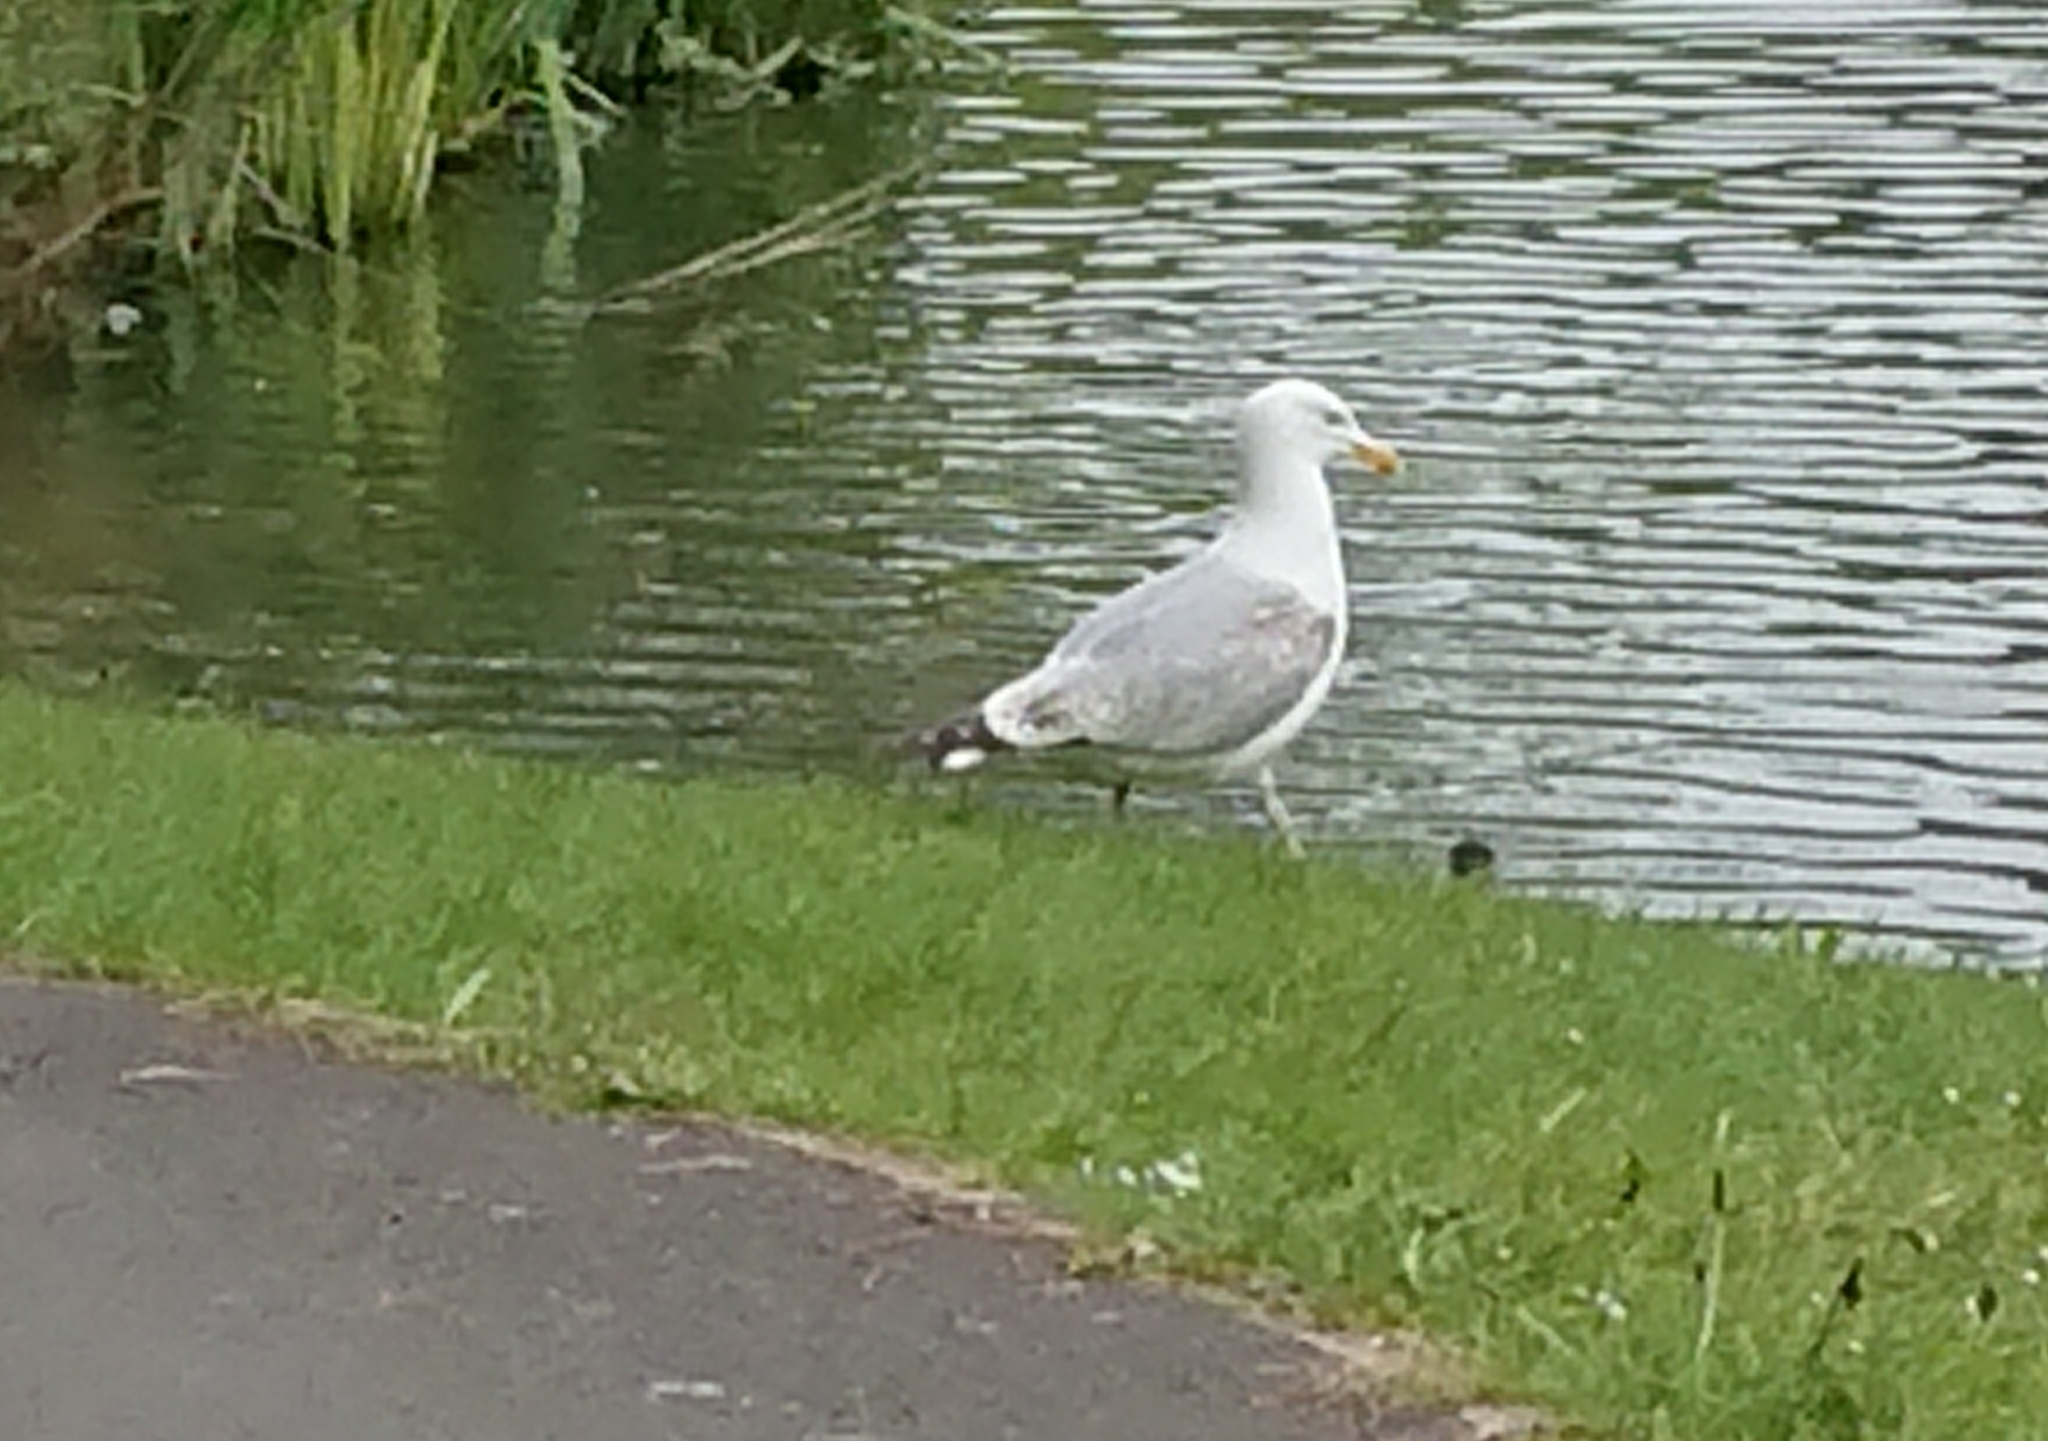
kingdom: Animalia
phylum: Chordata
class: Aves
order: Charadriiformes
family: Laridae
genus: Larus
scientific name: Larus argentatus
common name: Herring gull
